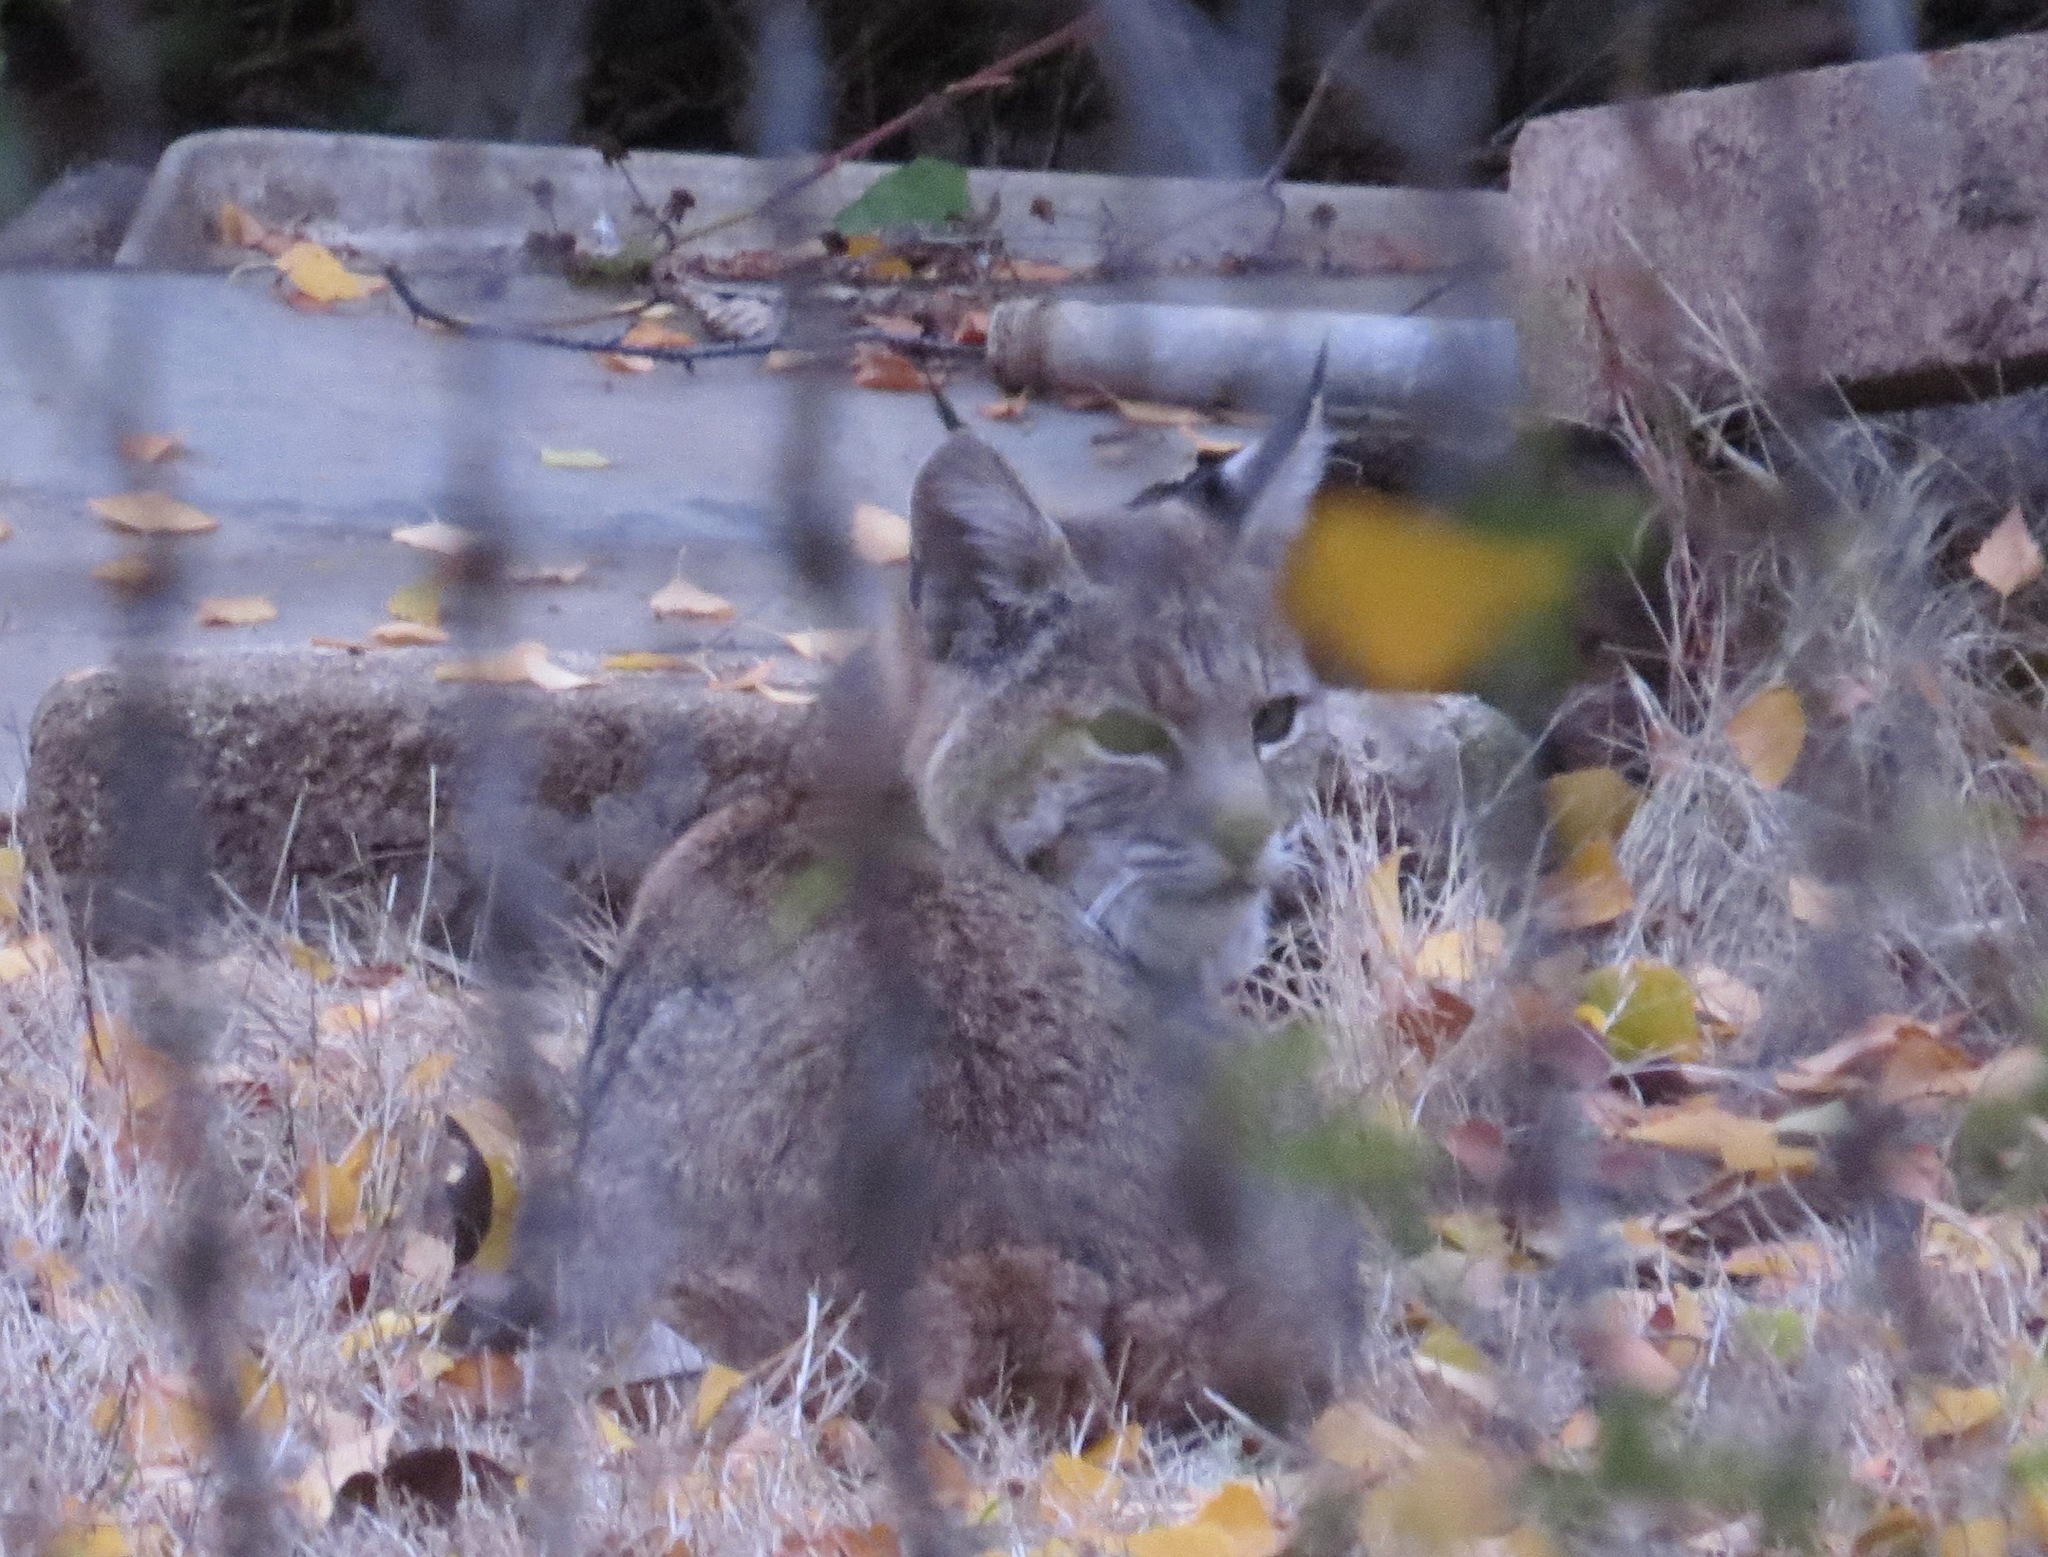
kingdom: Animalia
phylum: Chordata
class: Mammalia
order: Carnivora
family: Felidae
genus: Lynx
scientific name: Lynx rufus
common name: Bobcat
